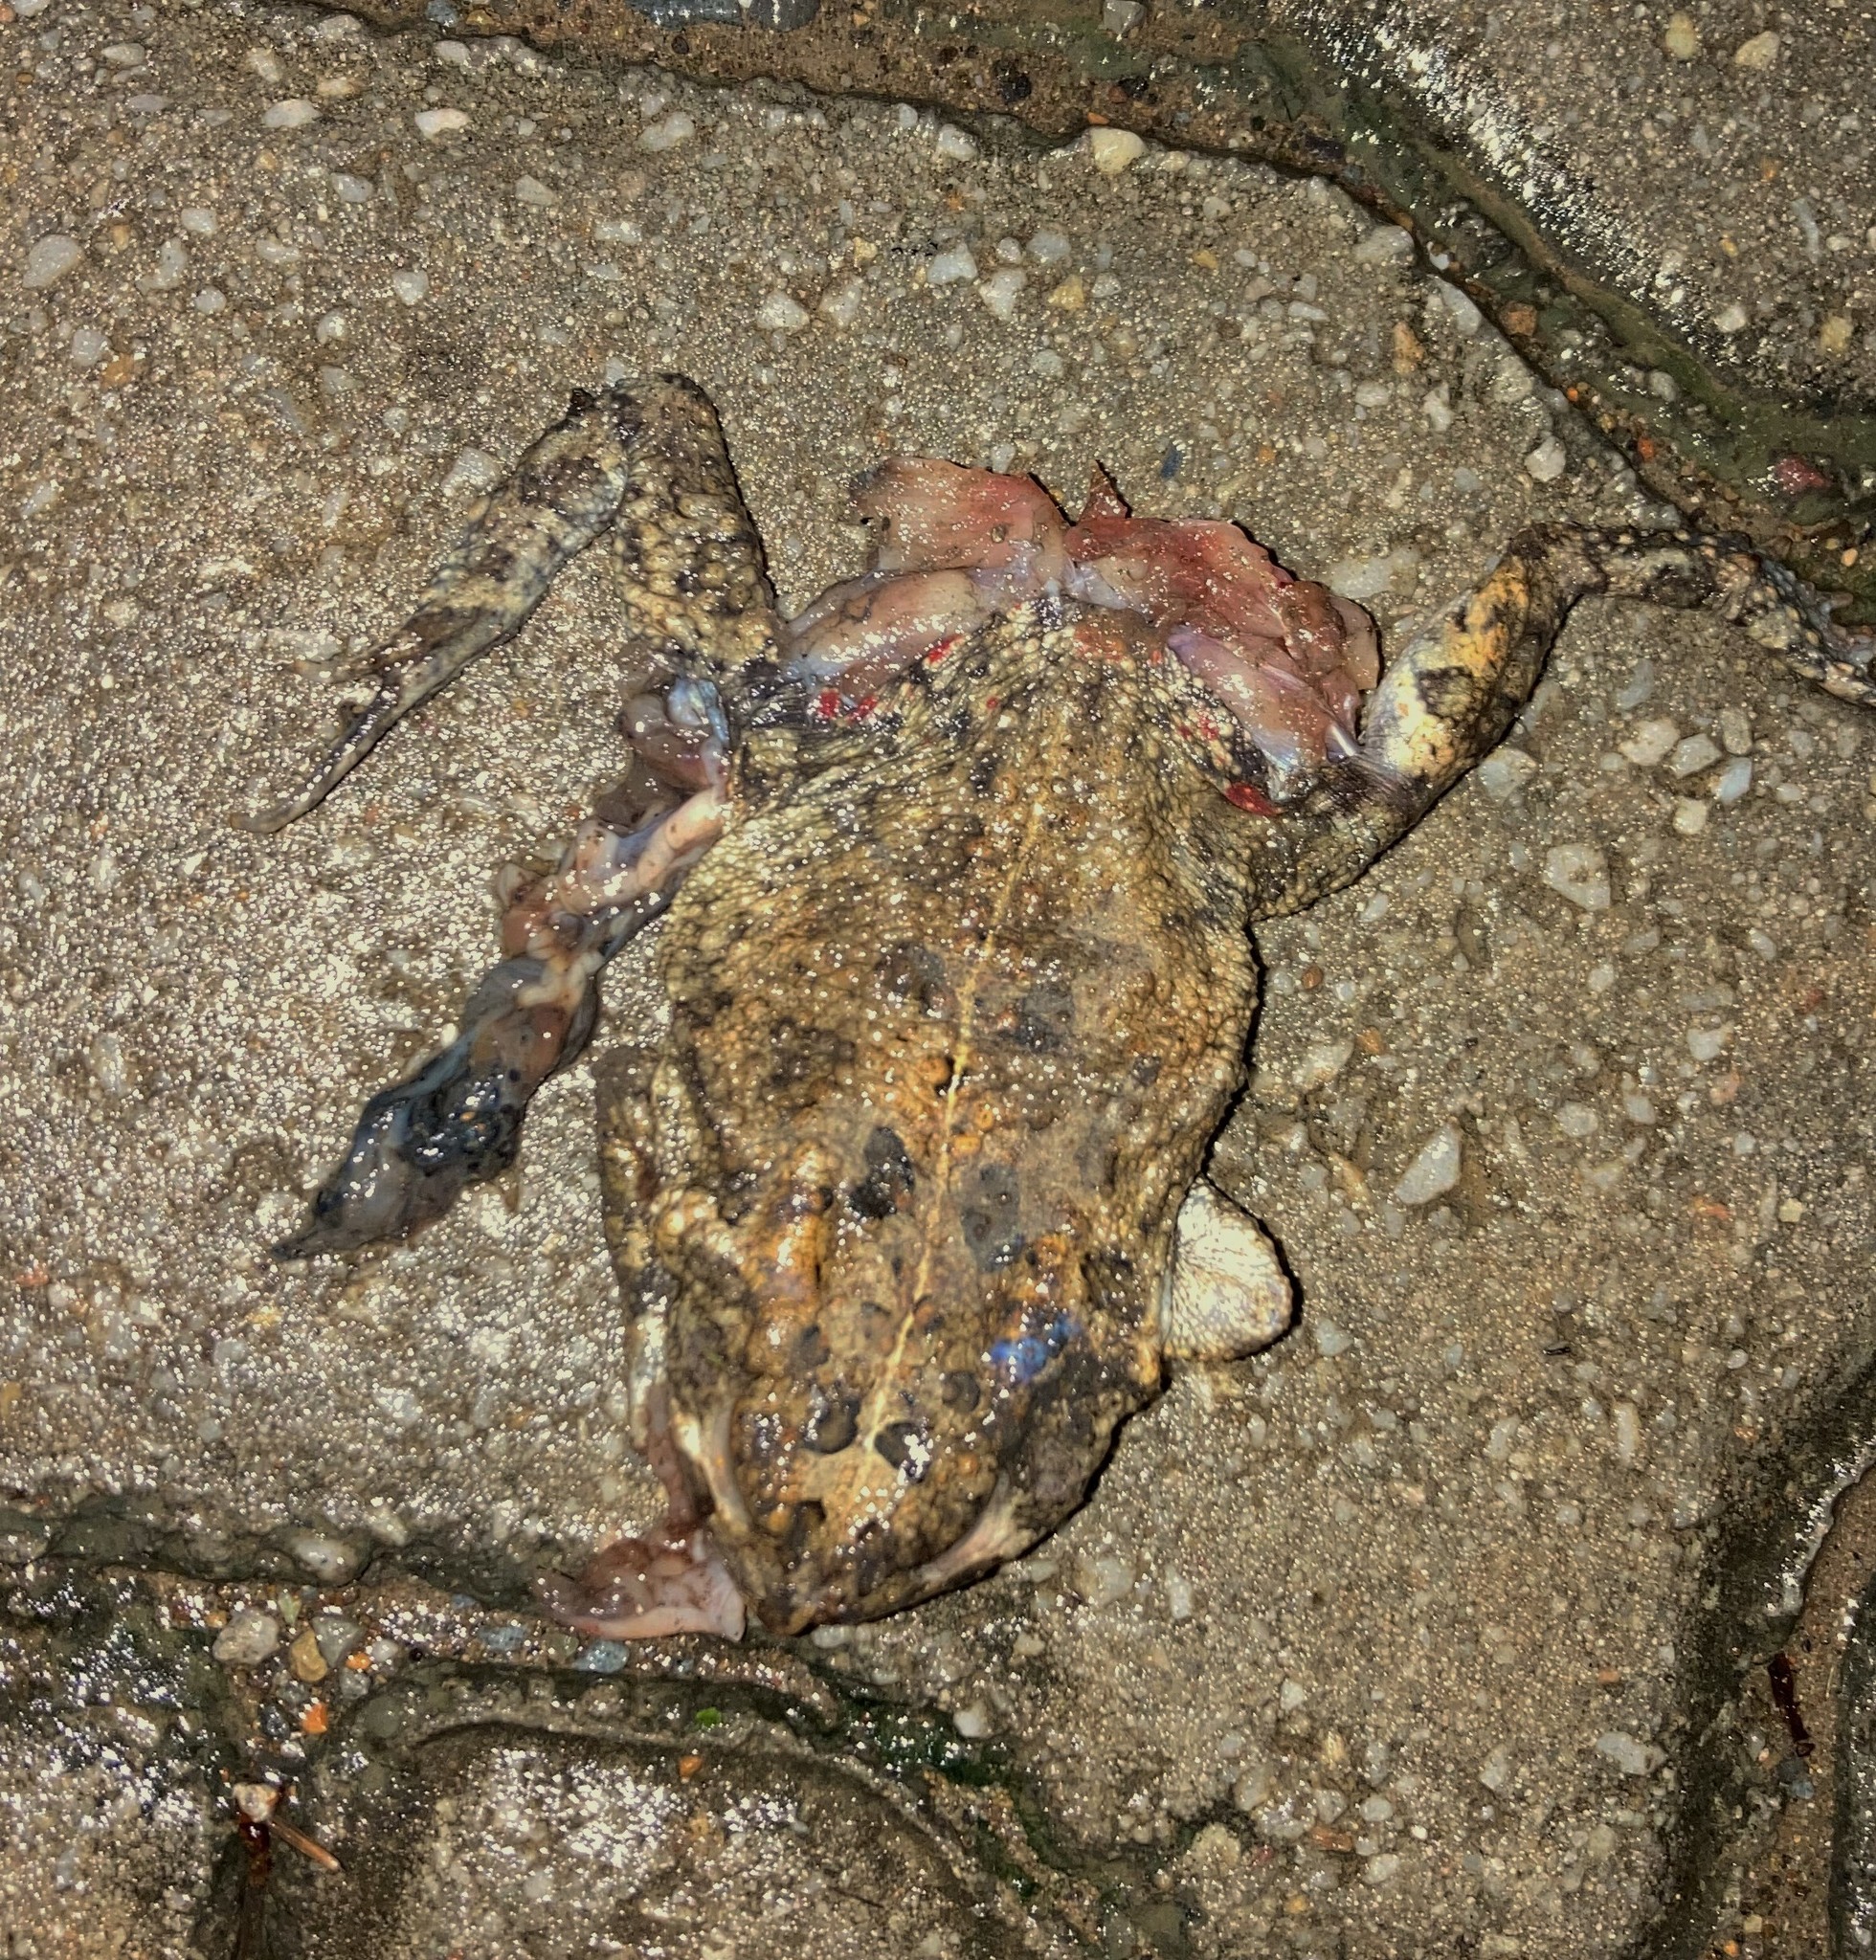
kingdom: Animalia
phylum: Chordata
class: Amphibia
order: Anura
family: Bufonidae
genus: Sclerophrys
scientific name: Sclerophrys gutturalis
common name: African common toad
